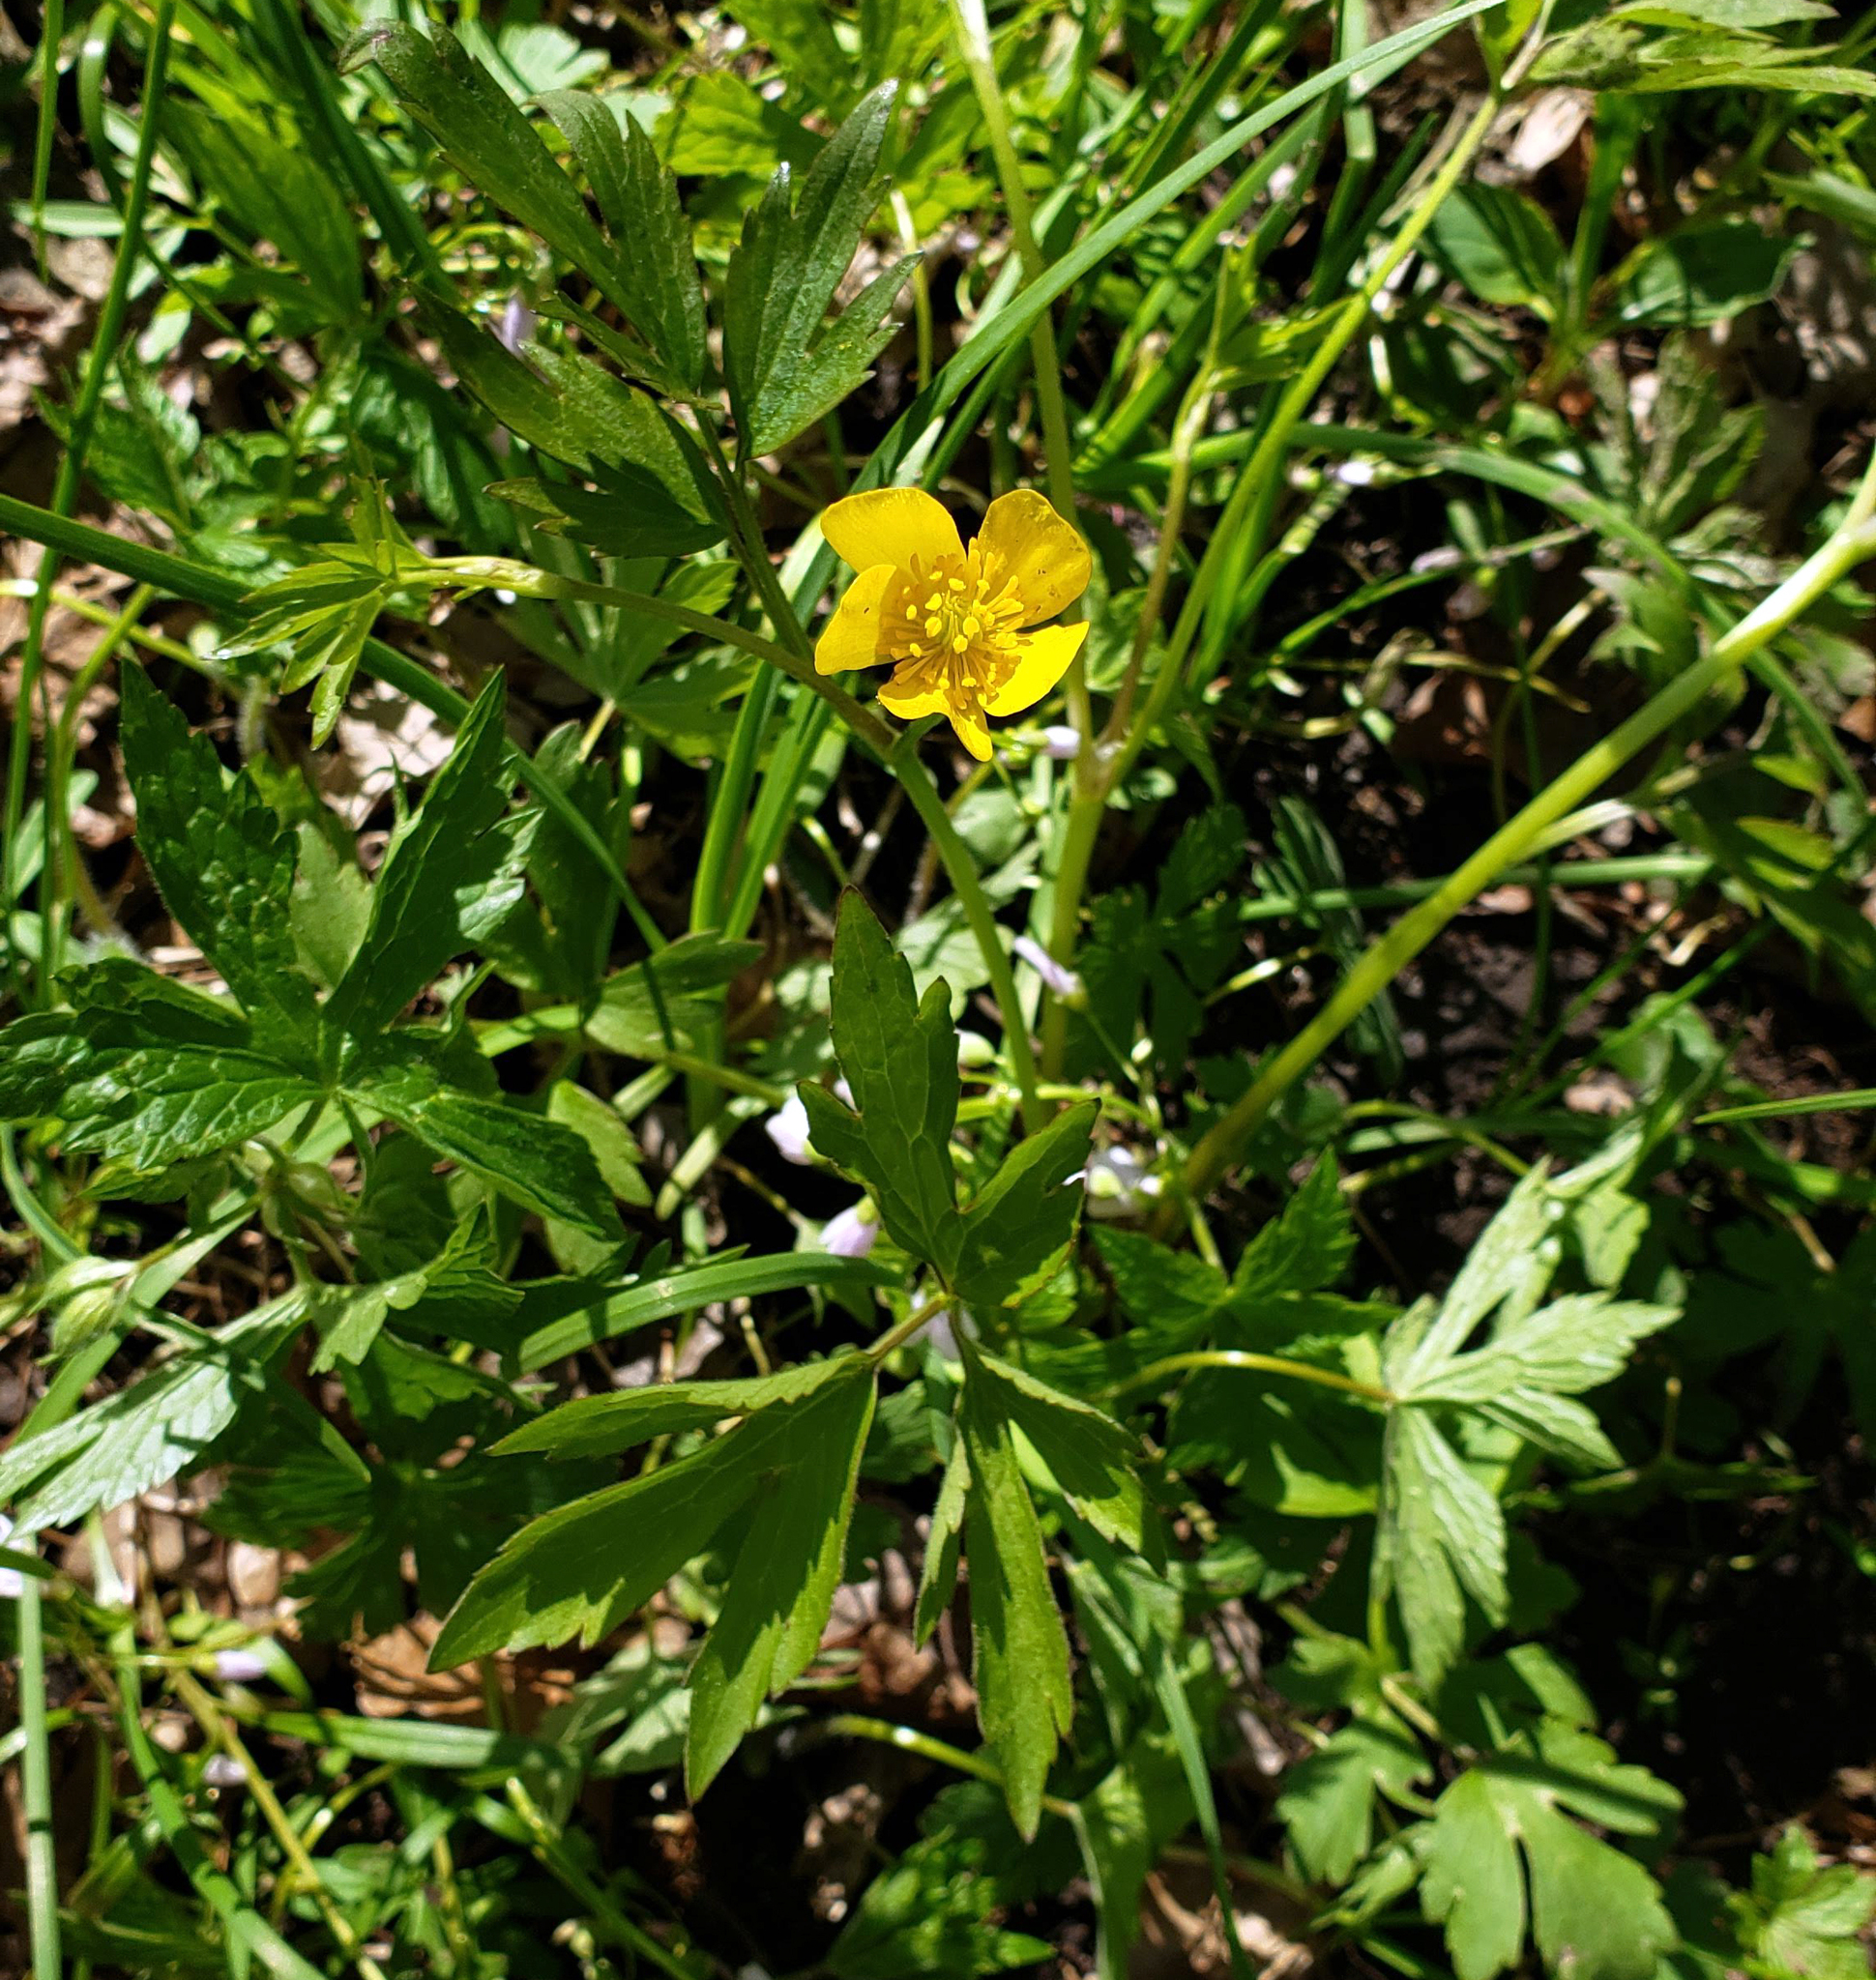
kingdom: Plantae
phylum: Tracheophyta
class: Magnoliopsida
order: Ranunculales
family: Ranunculaceae
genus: Ranunculus
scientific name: Ranunculus hispidus
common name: Bristly buttercup
